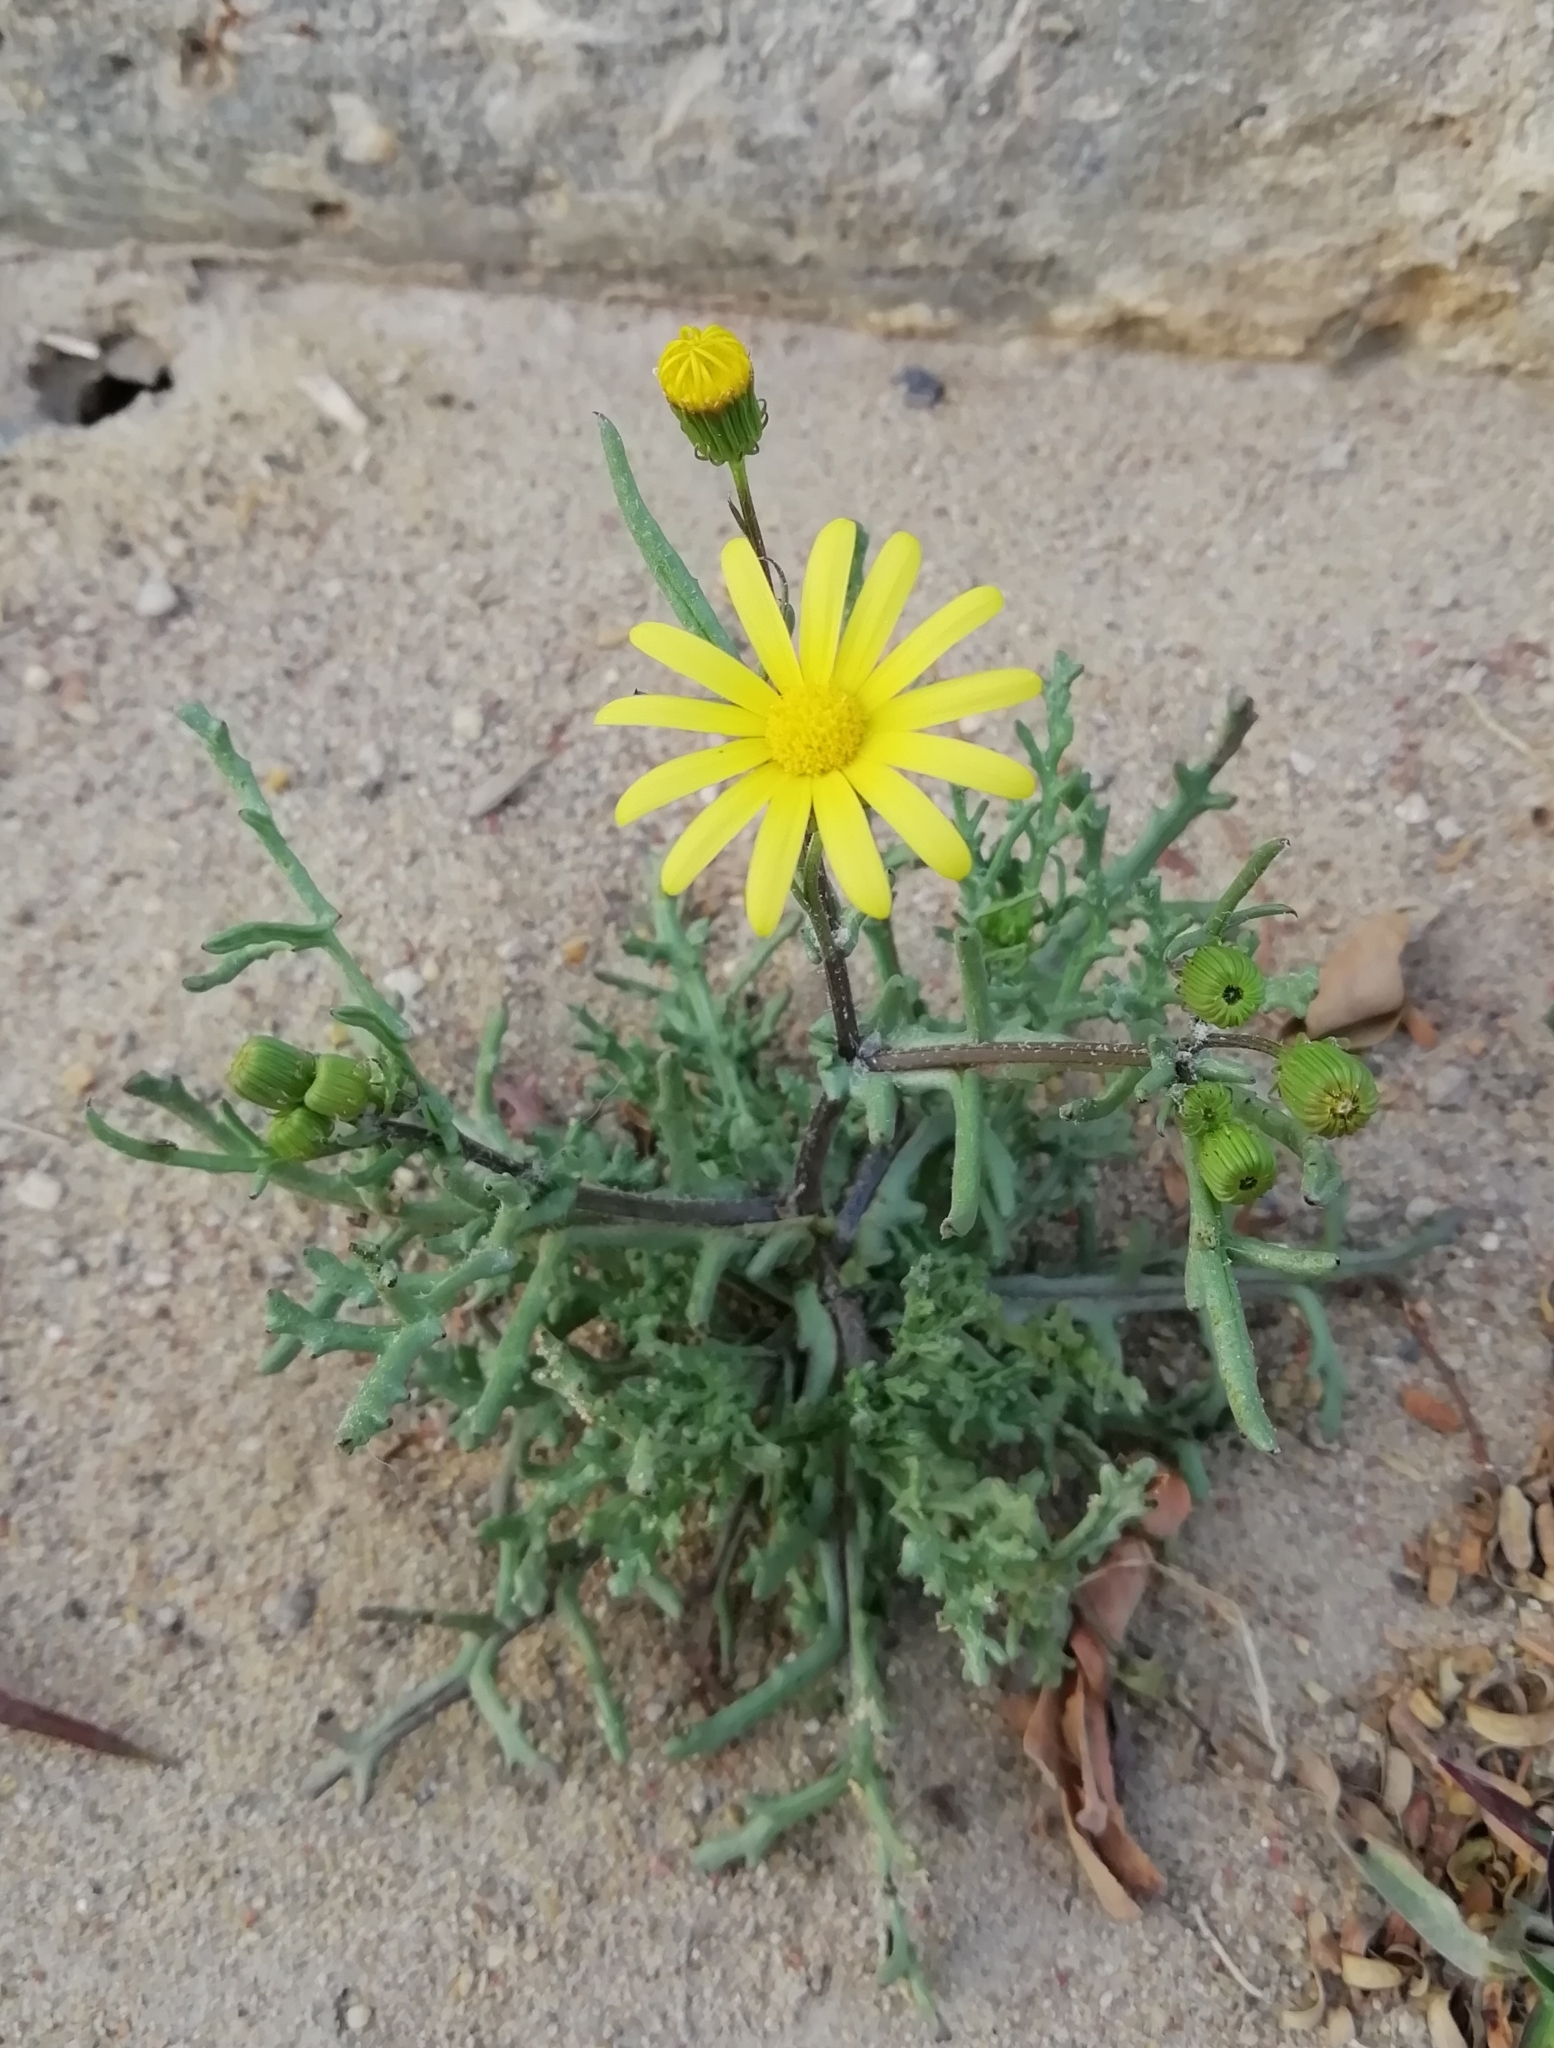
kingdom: Plantae
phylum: Tracheophyta
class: Magnoliopsida
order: Asterales
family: Asteraceae
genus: Senecio
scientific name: Senecio glaucus
